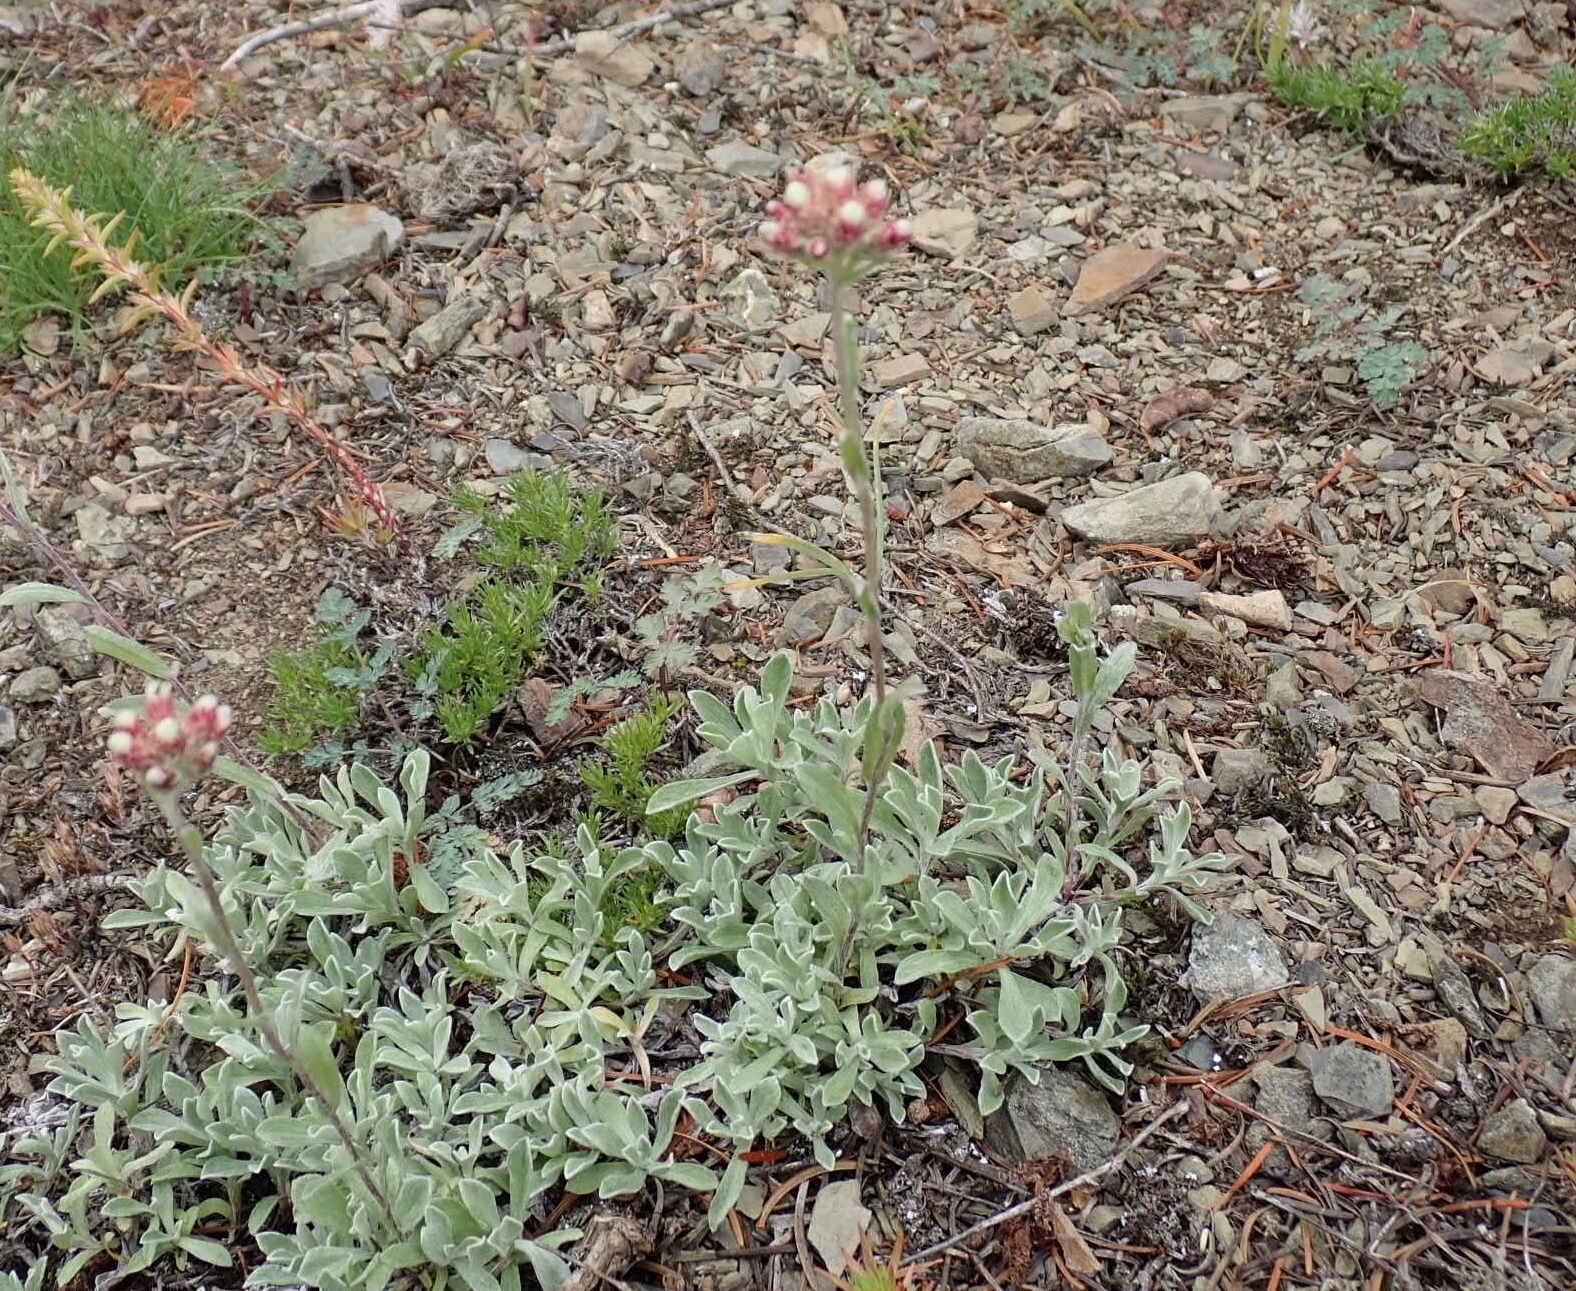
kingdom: Plantae
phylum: Tracheophyta
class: Magnoliopsida
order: Asterales
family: Asteraceae
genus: Antennaria
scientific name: Antennaria rosea
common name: Rosy pussytoes
